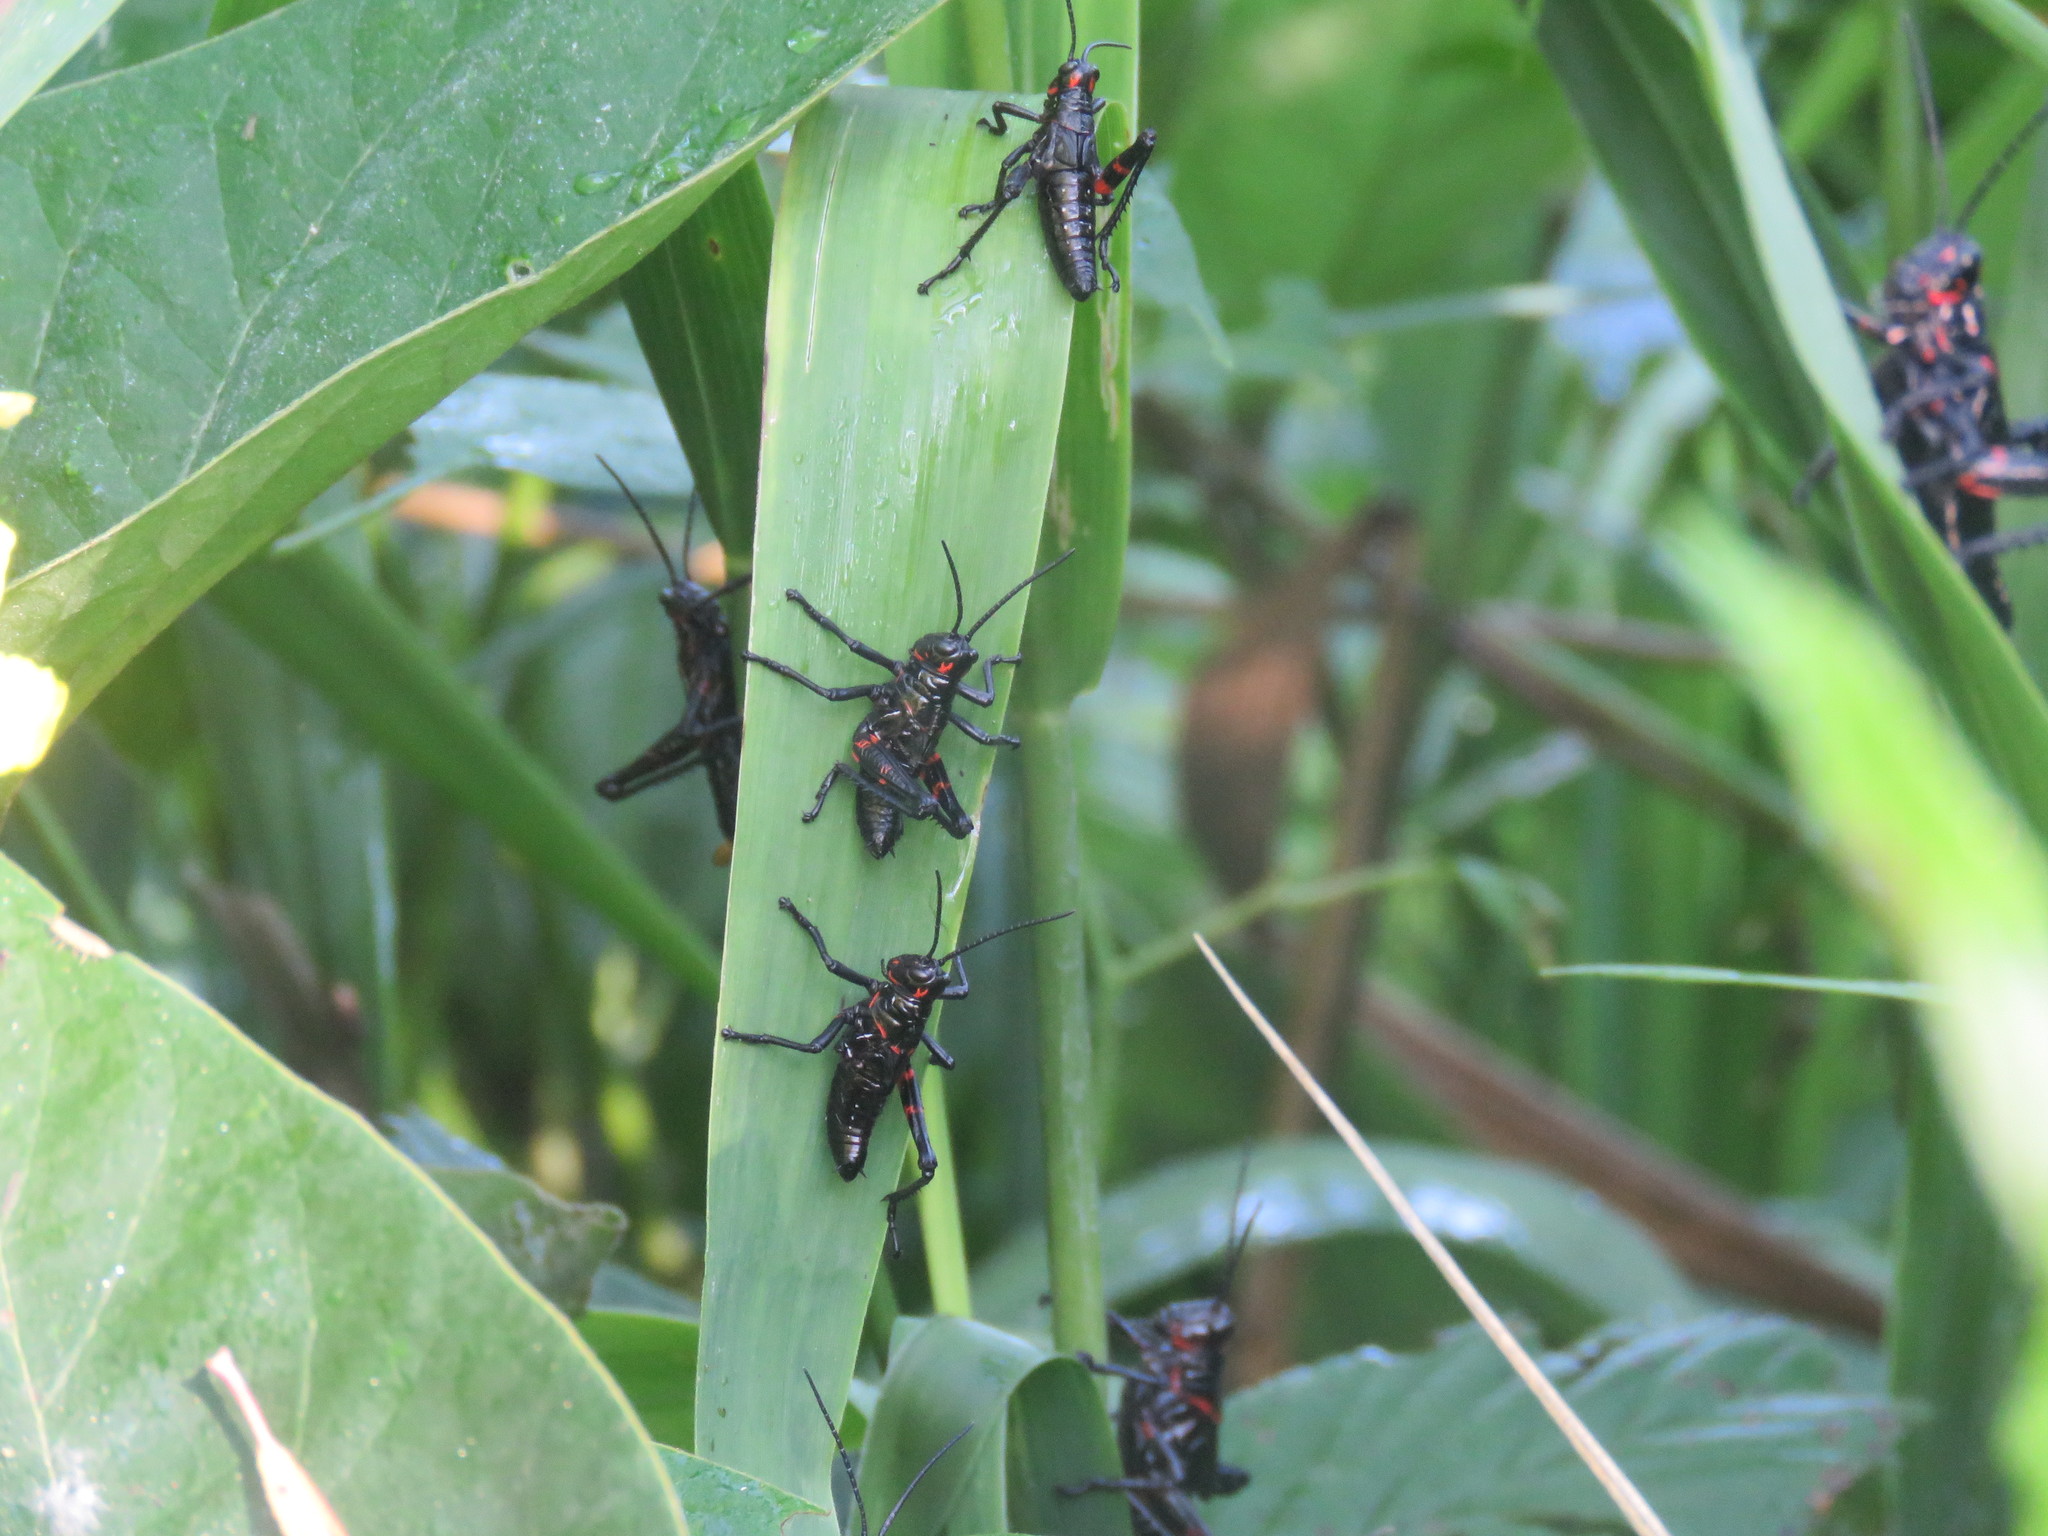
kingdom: Animalia
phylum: Arthropoda
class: Insecta
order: Orthoptera
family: Romaleidae
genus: Chromacris
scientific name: Chromacris speciosa
